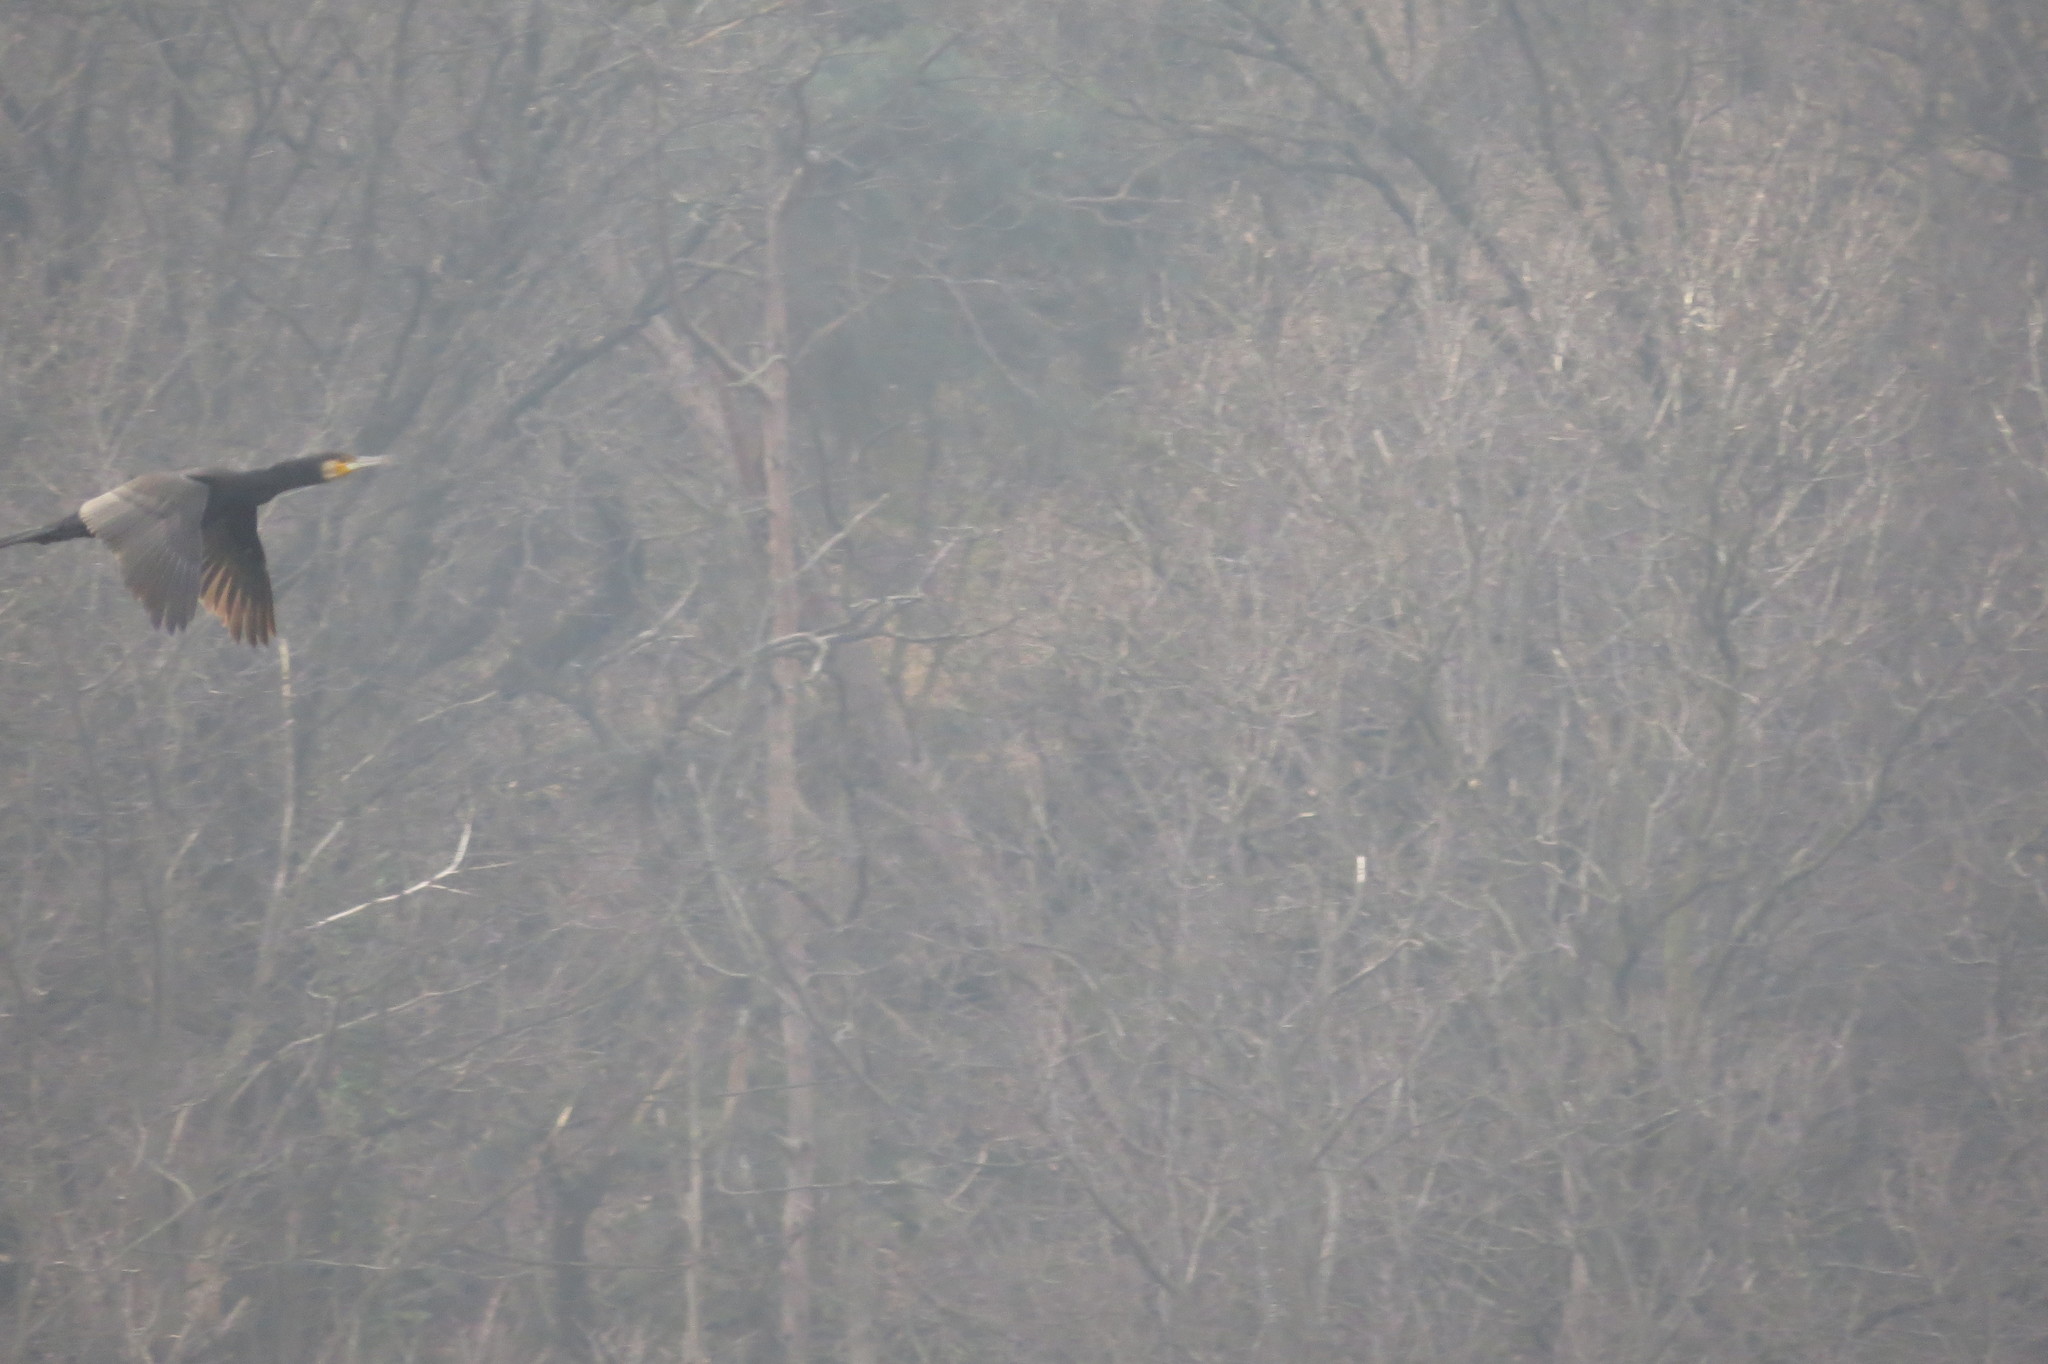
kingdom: Animalia
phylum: Chordata
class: Aves
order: Suliformes
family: Phalacrocoracidae
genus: Phalacrocorax
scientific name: Phalacrocorax carbo
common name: Great cormorant
